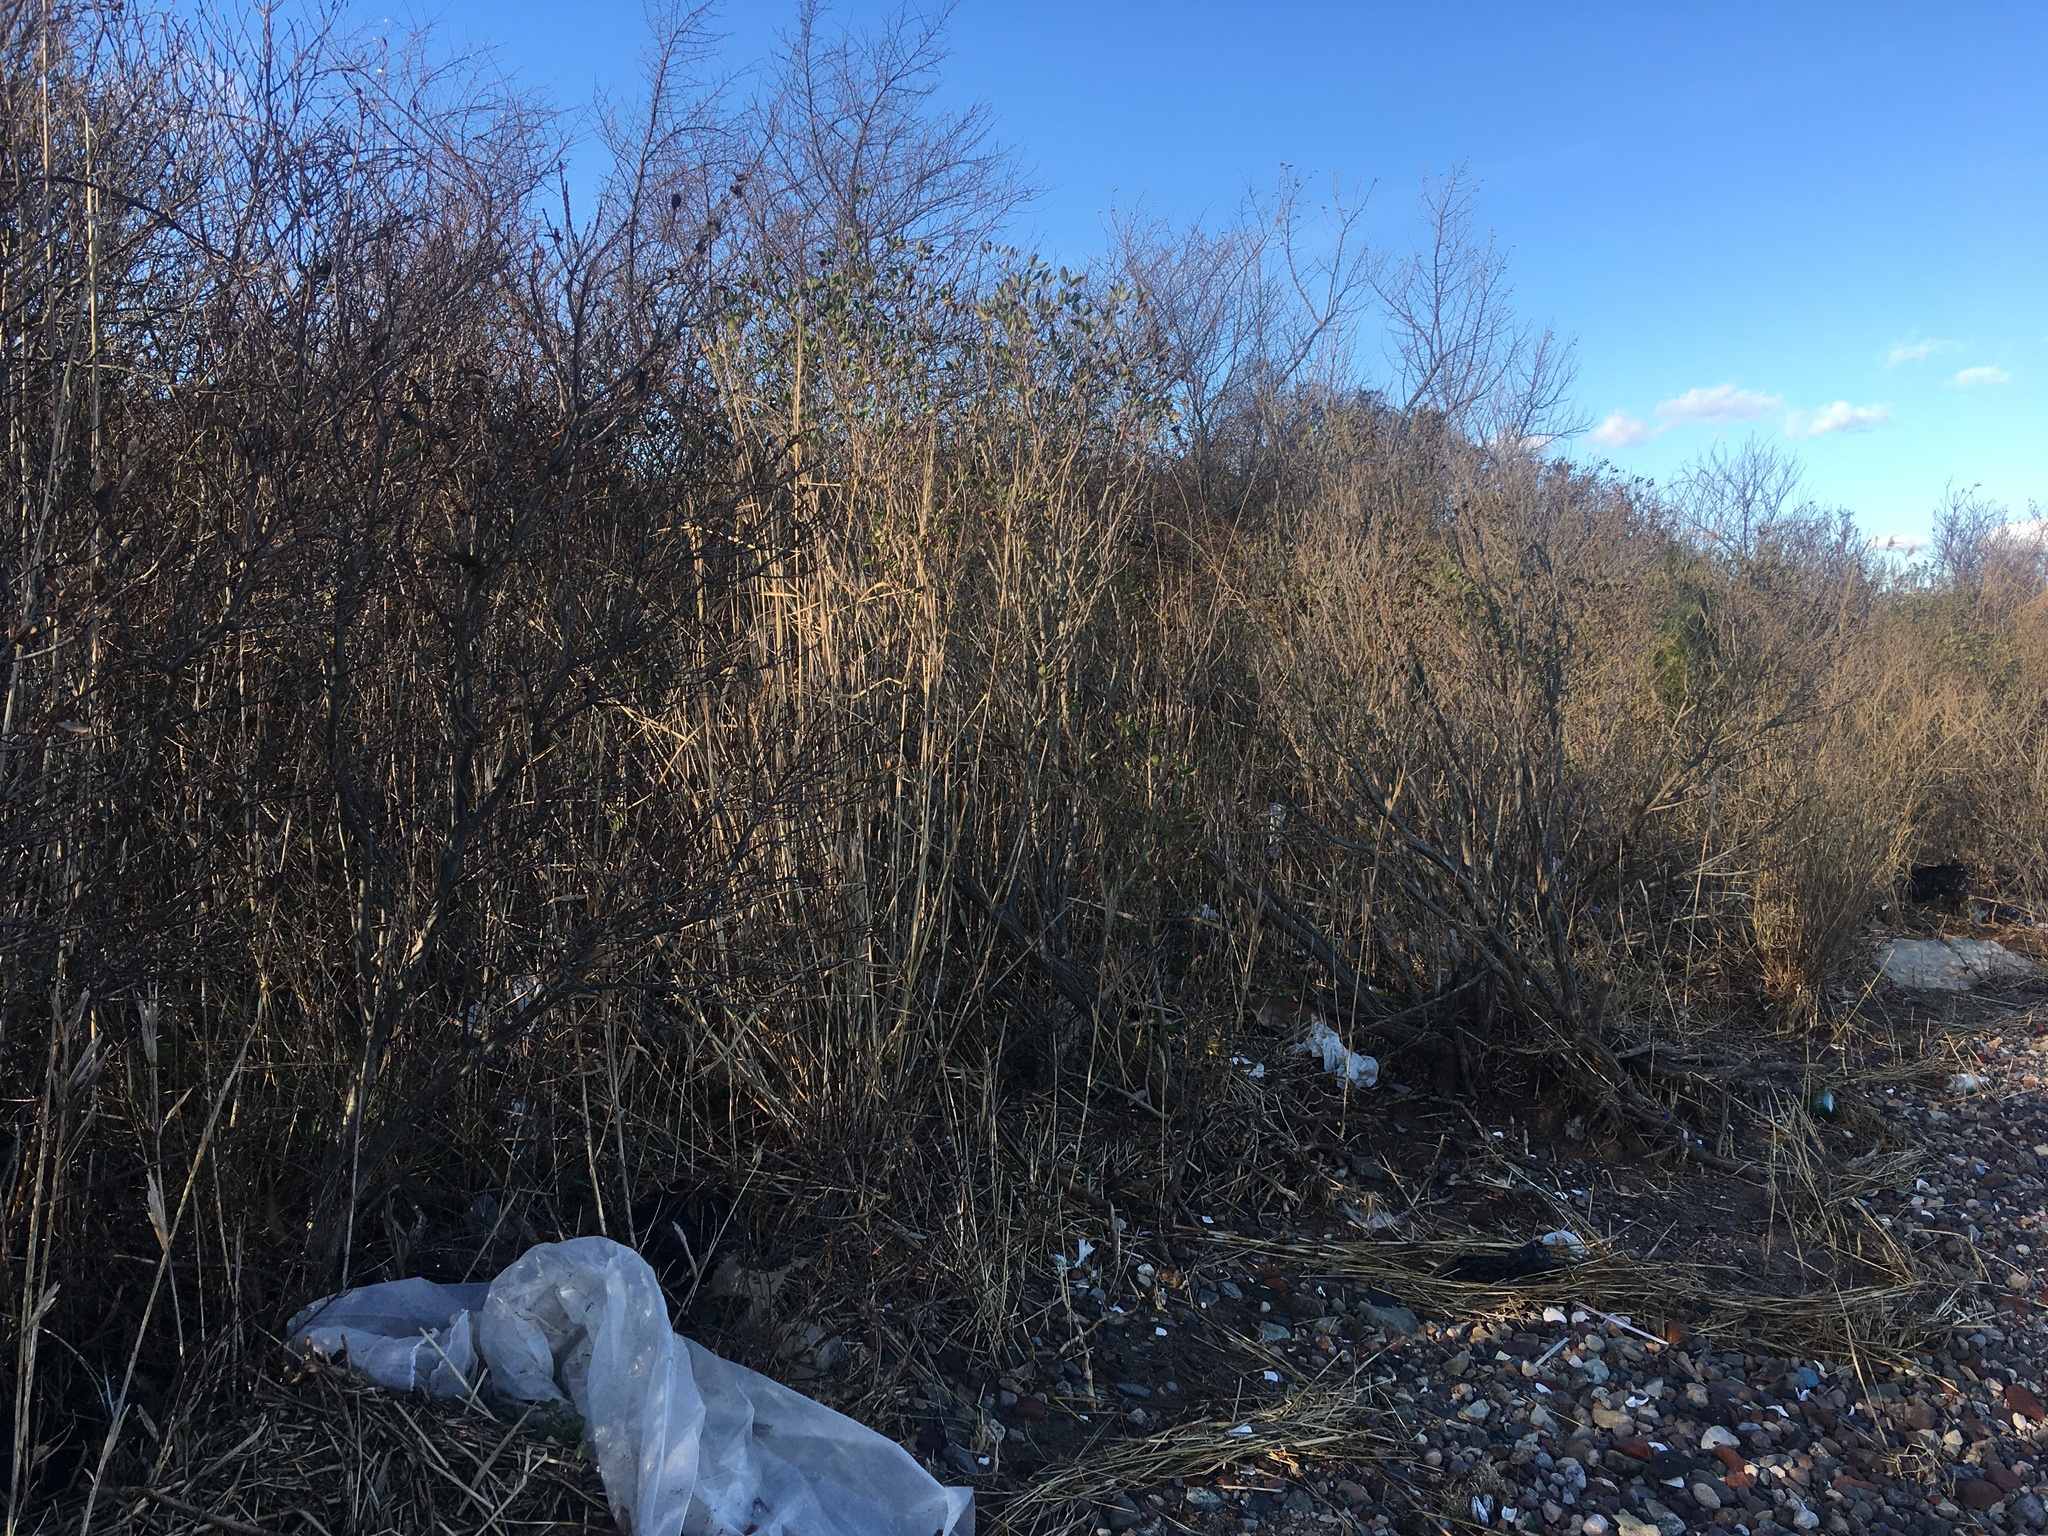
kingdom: Plantae
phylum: Tracheophyta
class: Magnoliopsida
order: Asterales
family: Asteraceae
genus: Baccharis
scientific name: Baccharis halimifolia
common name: Eastern baccharis
